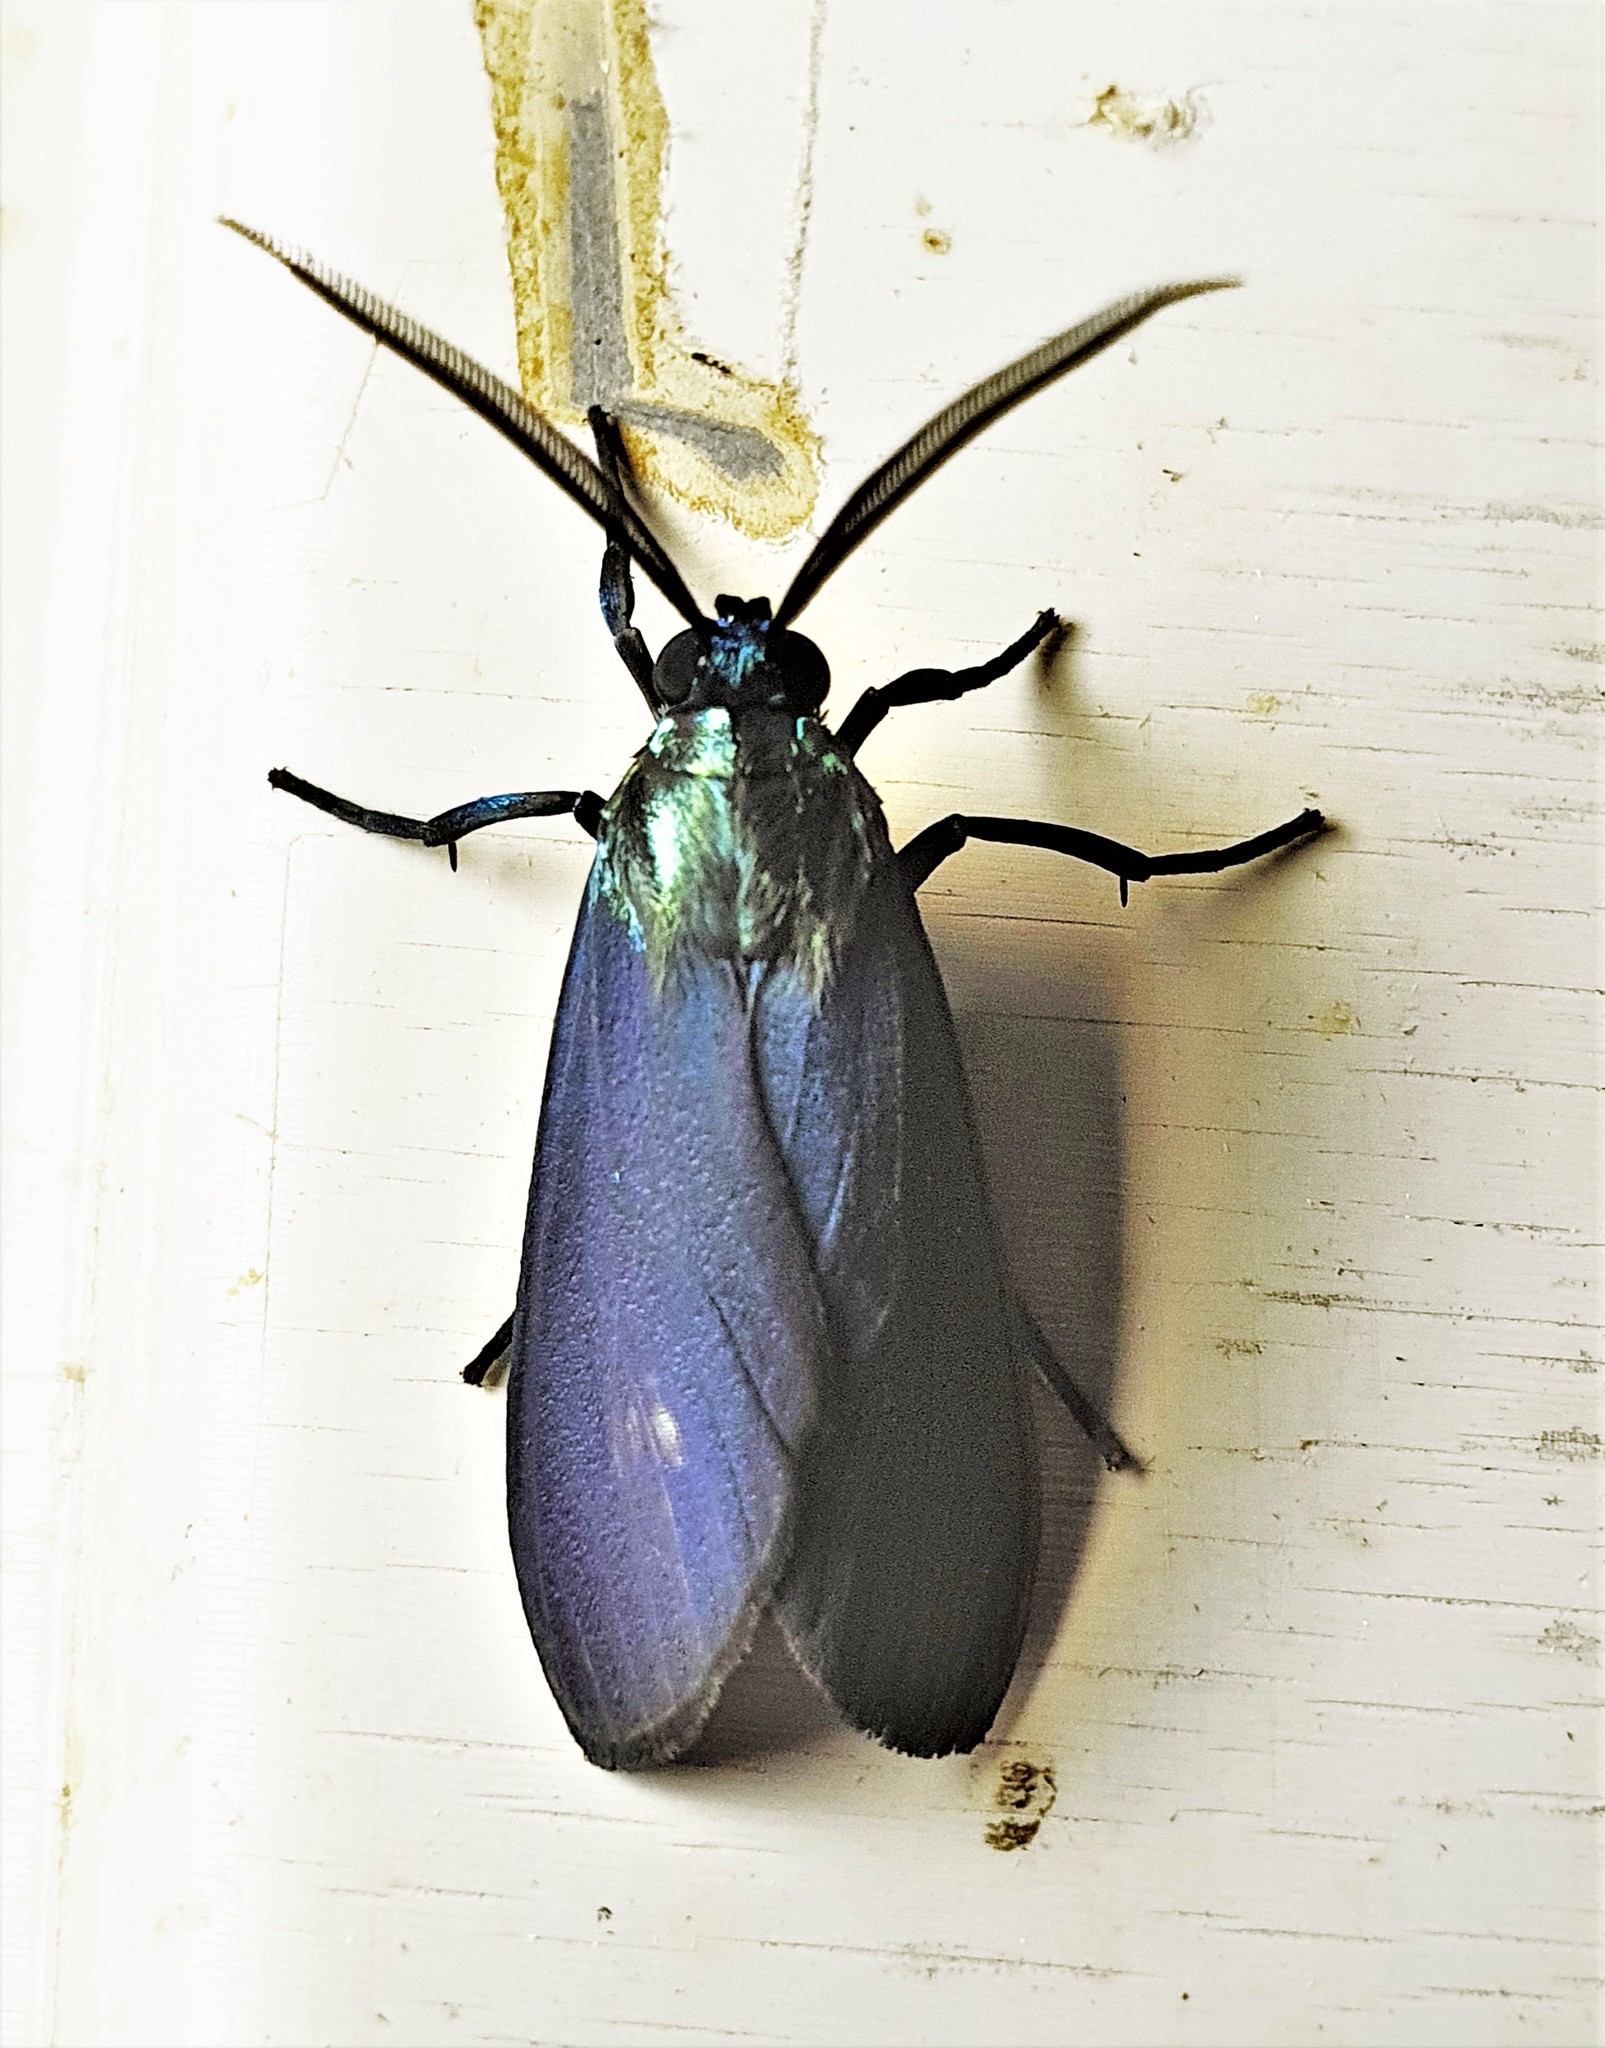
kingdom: Animalia
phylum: Arthropoda
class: Insecta
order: Lepidoptera
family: Erebidae
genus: Episcepsis
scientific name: Episcepsis scintillans
